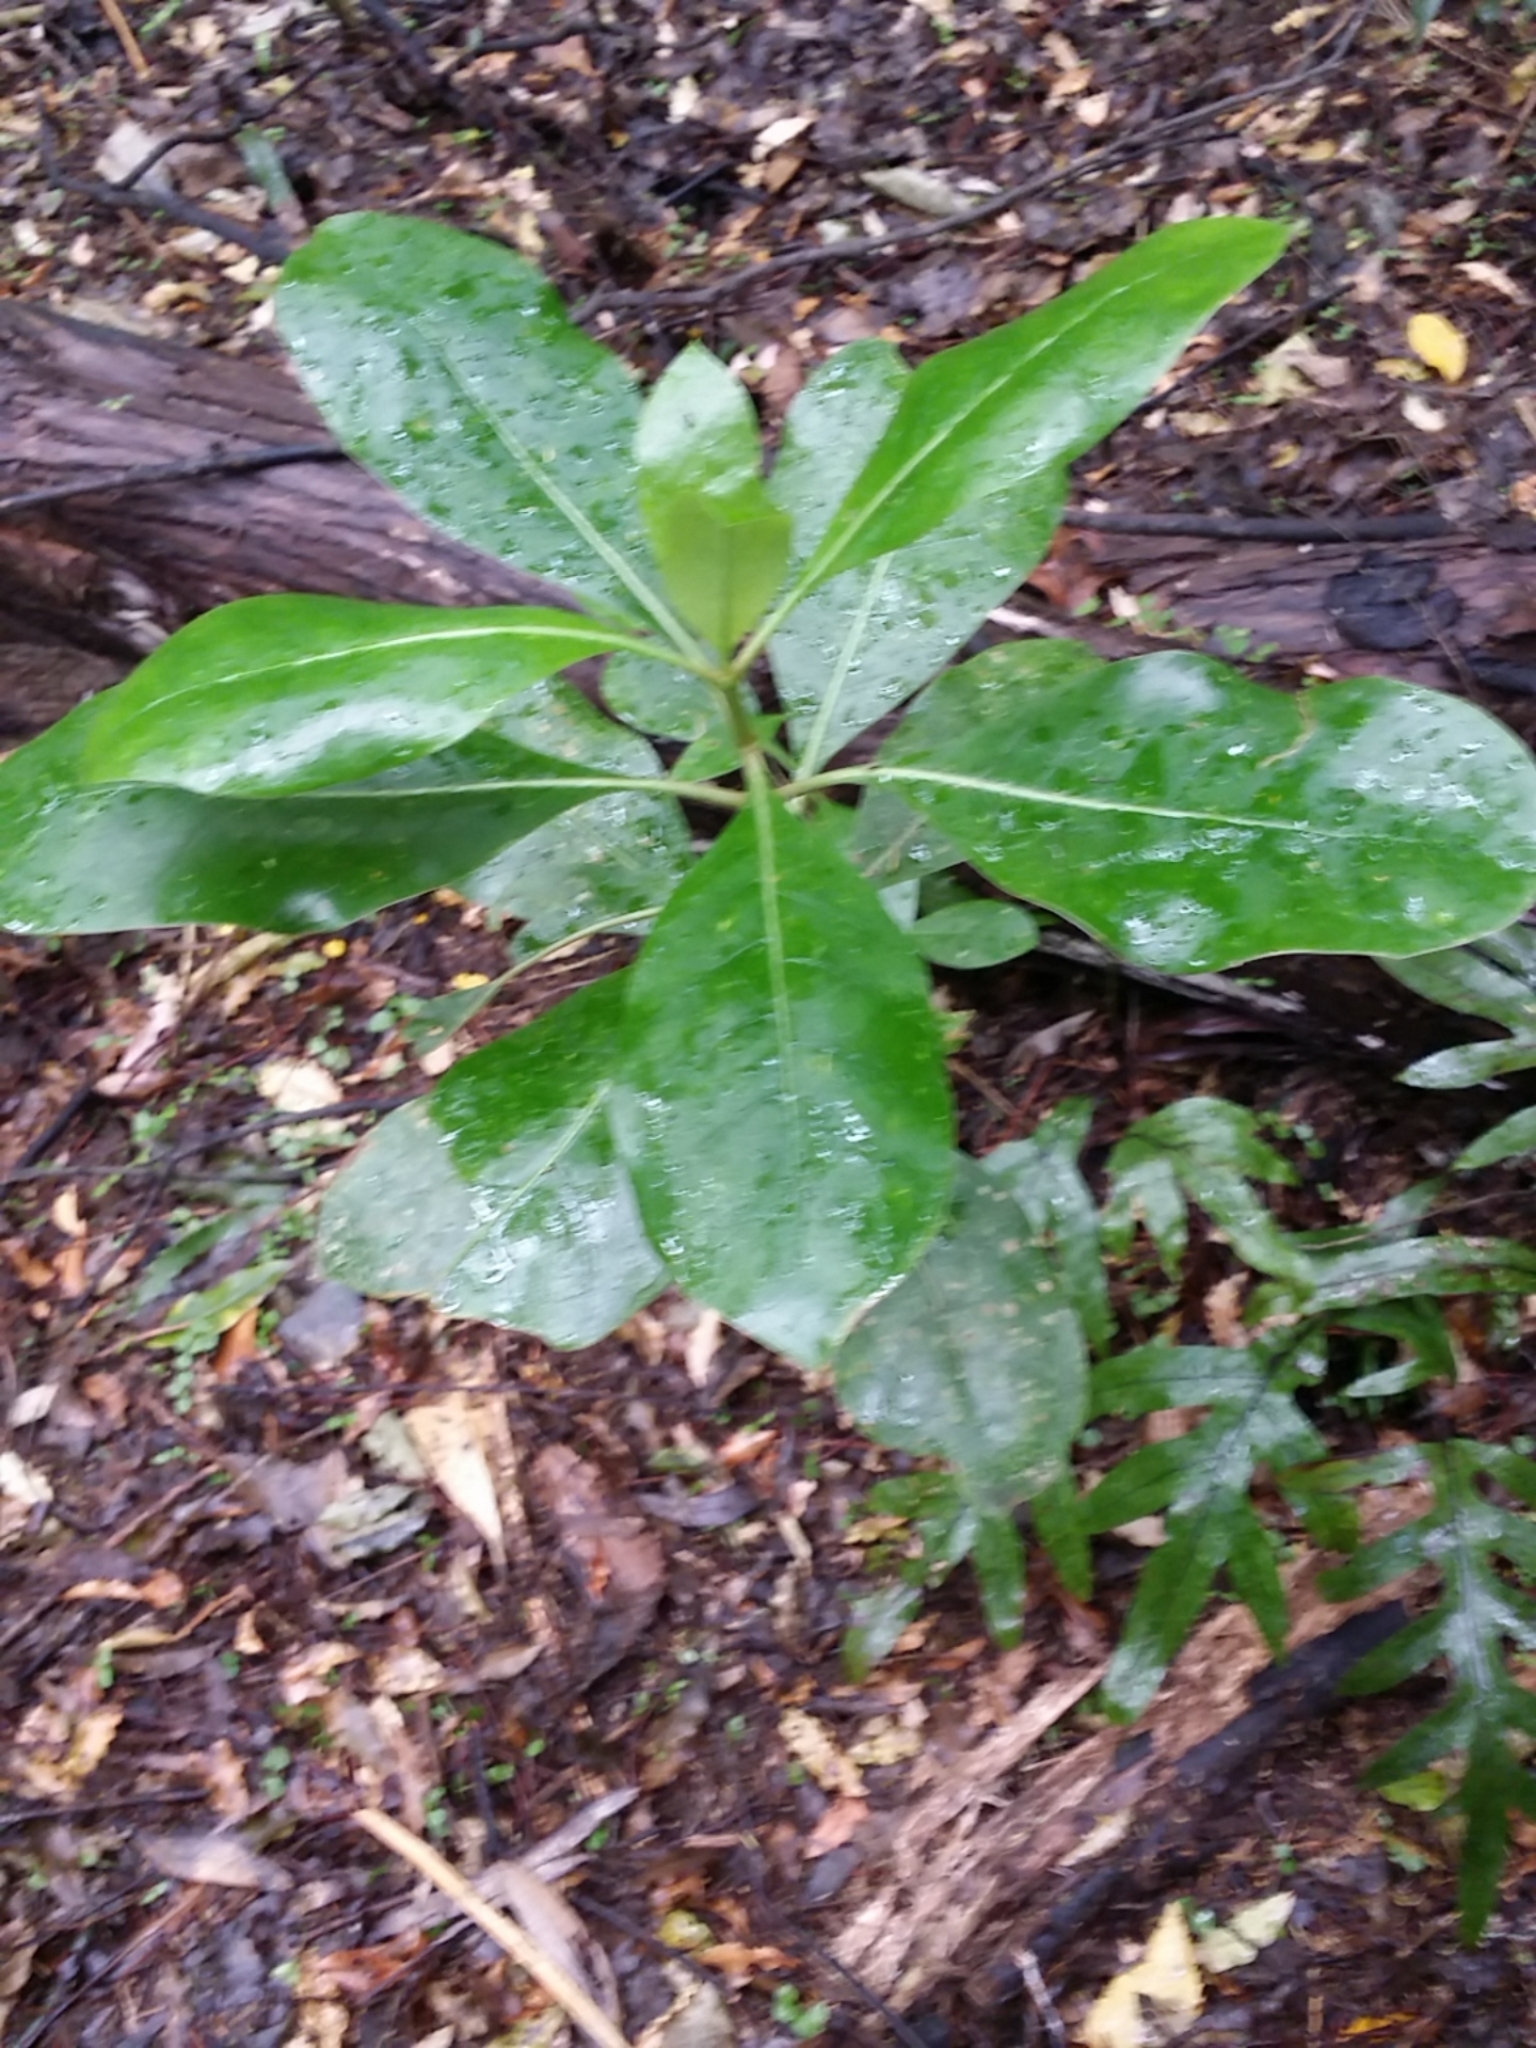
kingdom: Plantae
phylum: Tracheophyta
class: Magnoliopsida
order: Gentianales
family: Rubiaceae
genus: Coprosma
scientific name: Coprosma lucida
